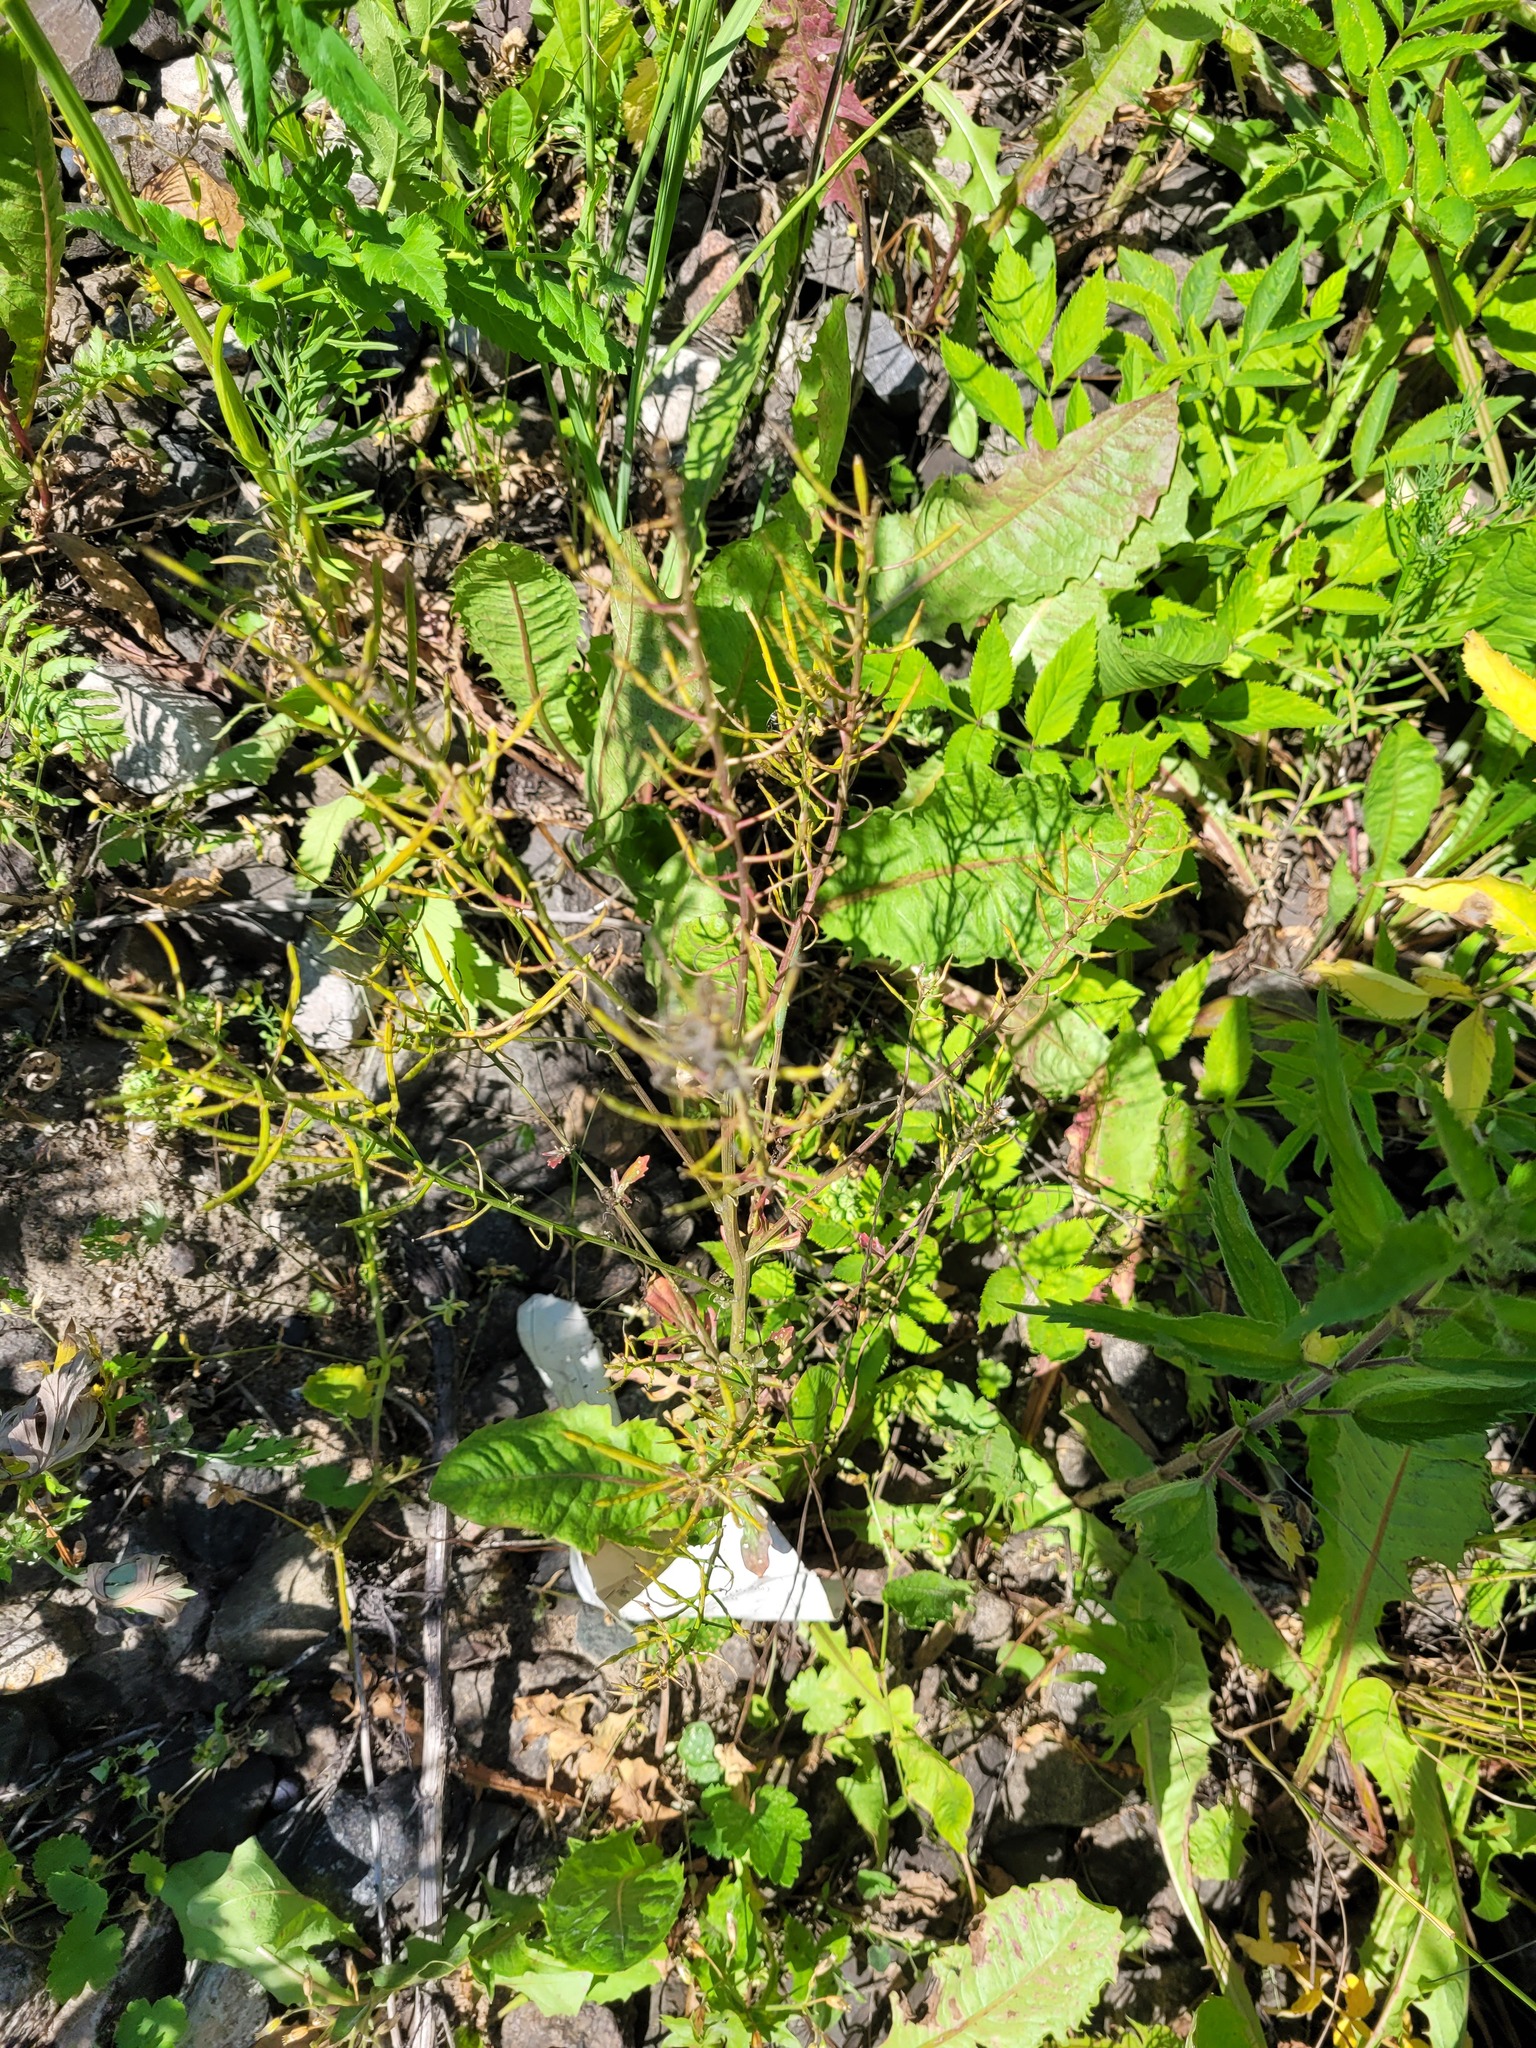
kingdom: Plantae
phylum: Tracheophyta
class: Magnoliopsida
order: Brassicales
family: Brassicaceae
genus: Barbarea
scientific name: Barbarea vulgaris
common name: Cressy-greens
